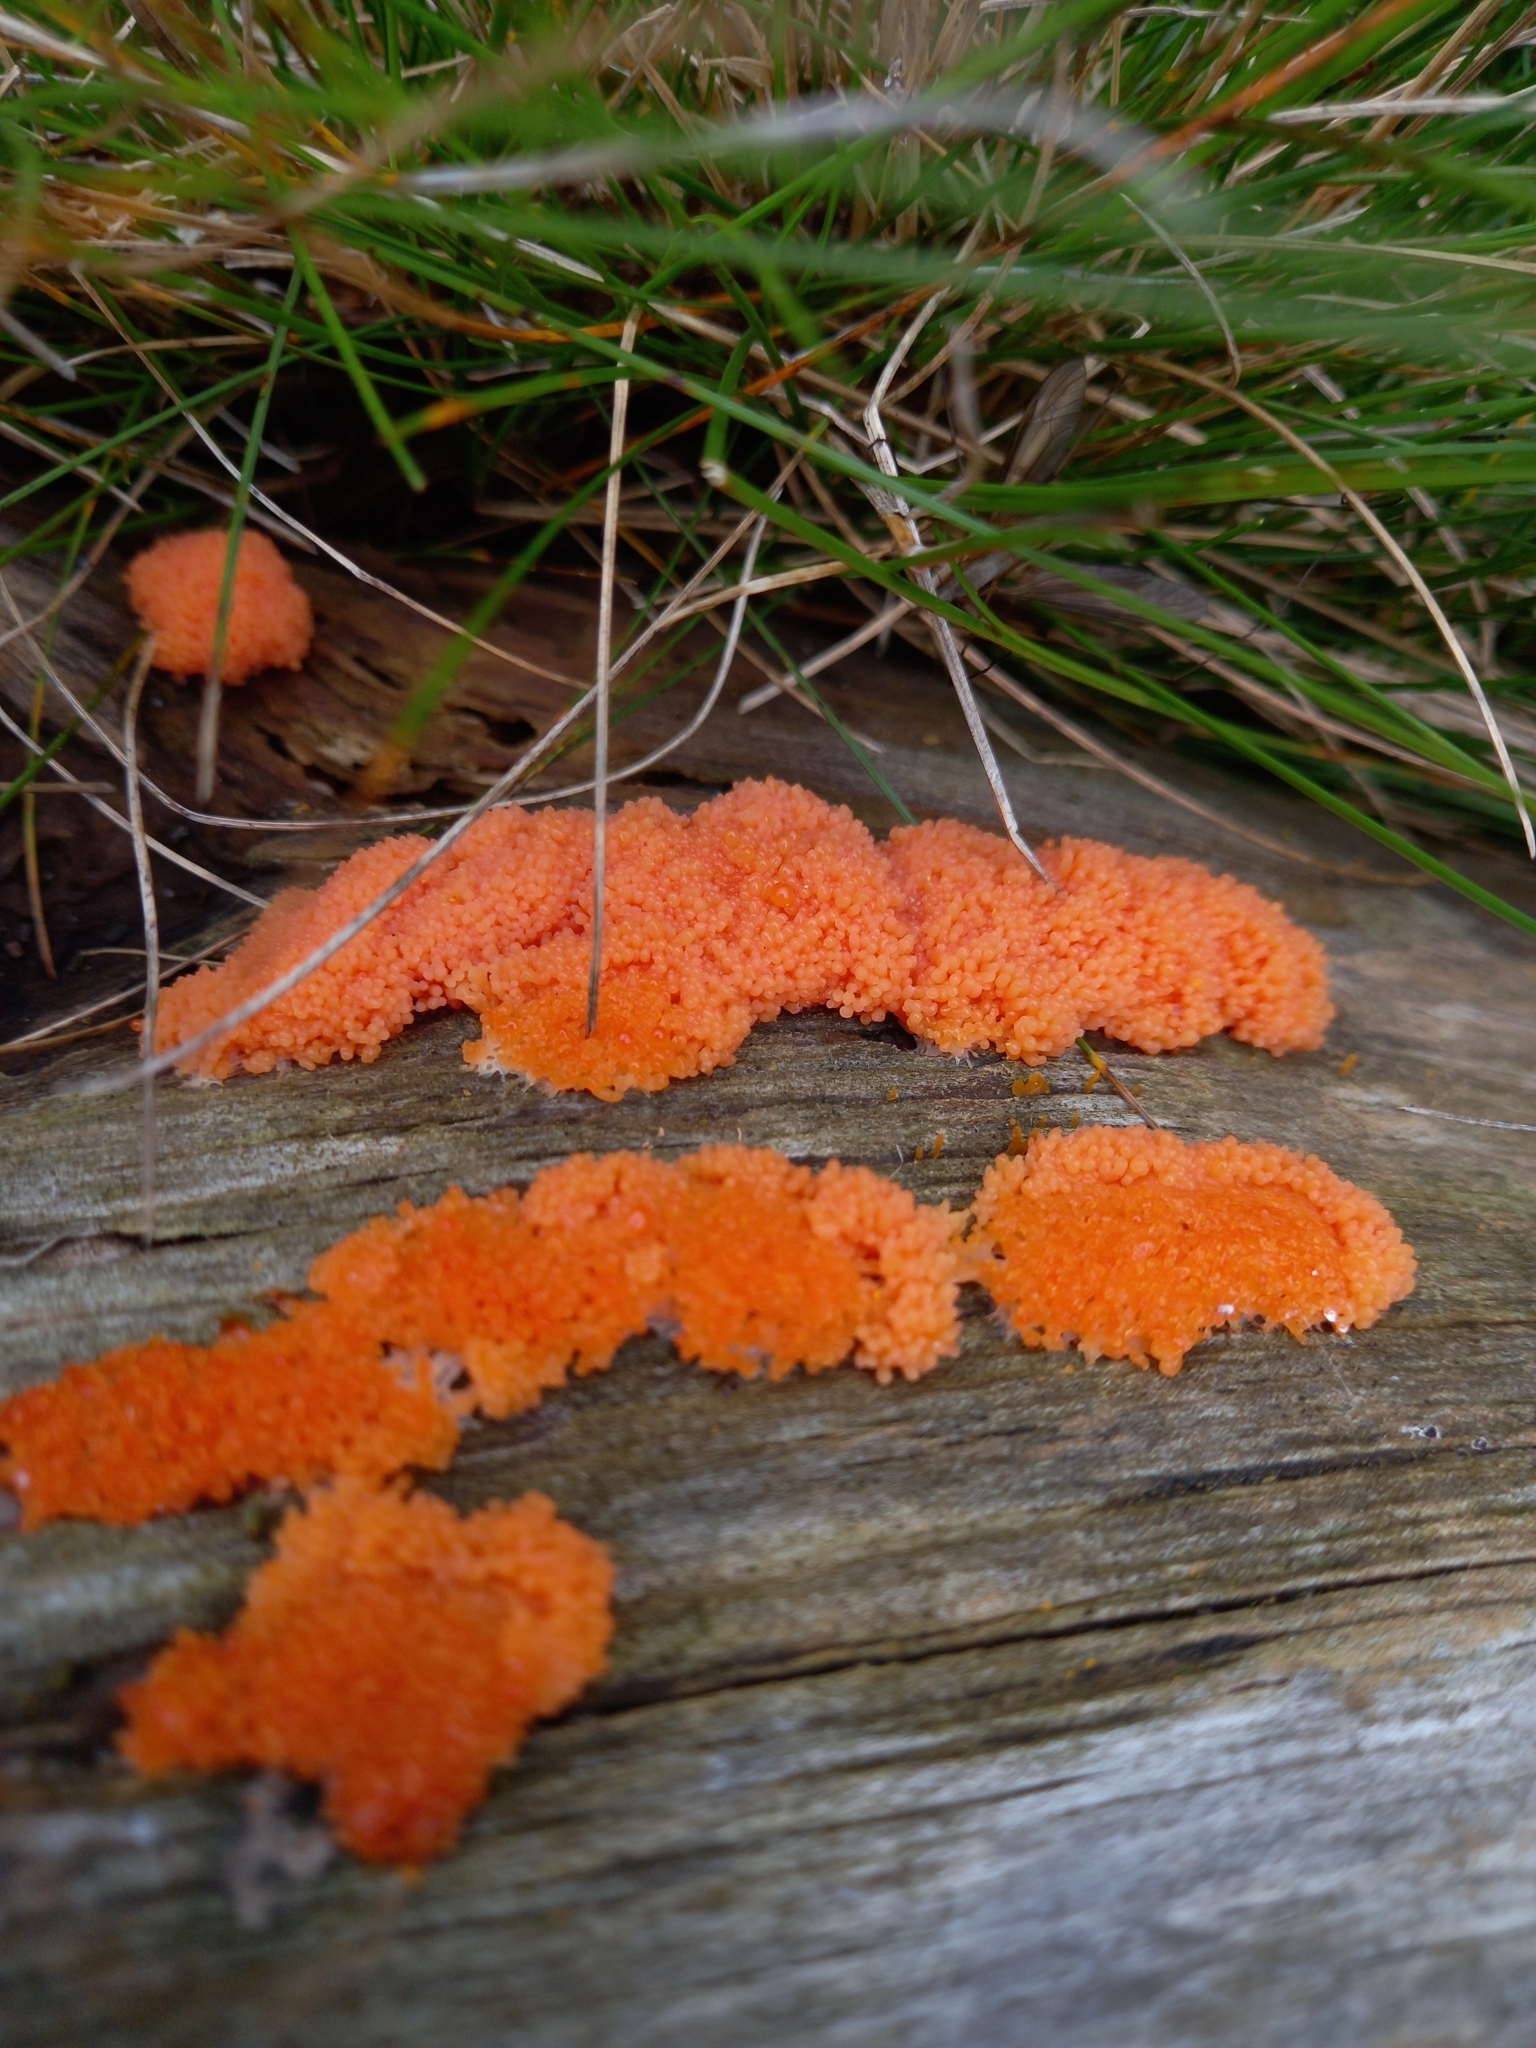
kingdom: Protozoa
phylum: Mycetozoa
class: Myxomycetes
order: Cribrariales
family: Tubiferaceae
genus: Tubifera
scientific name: Tubifera ferruginosa
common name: Red raspberry slime mold
